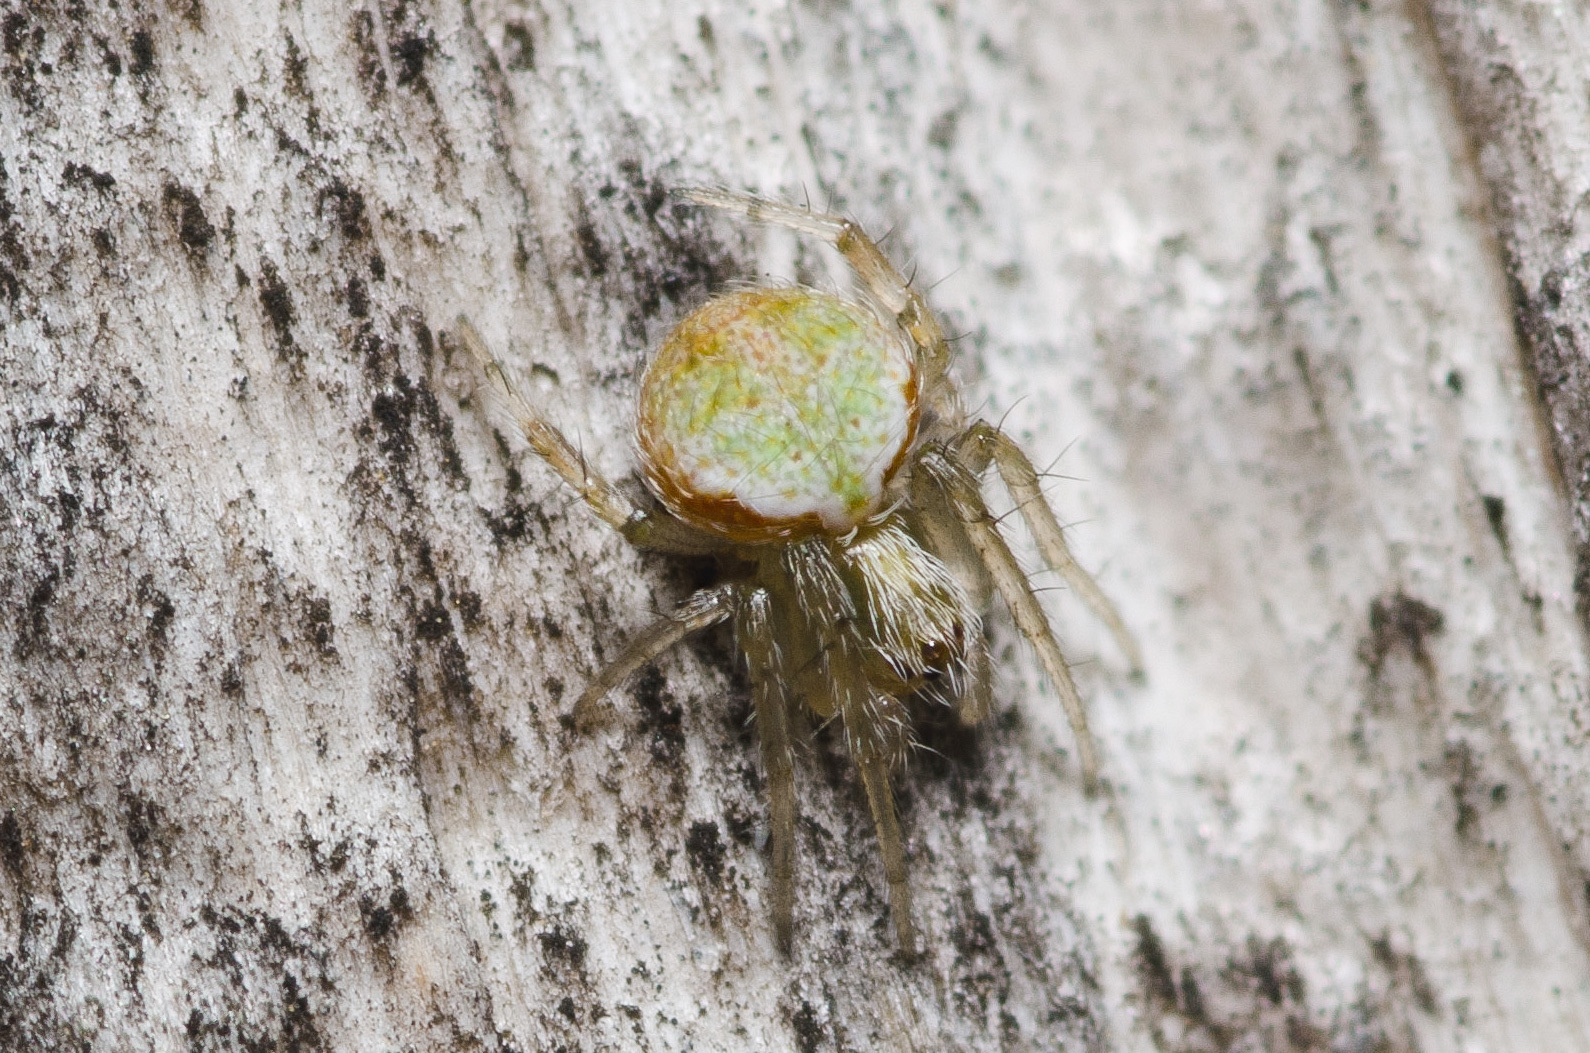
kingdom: Animalia
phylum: Arthropoda
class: Arachnida
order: Araneae
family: Araneidae
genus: Araneus
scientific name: Araneus detrimentosus
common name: Orb weavers
